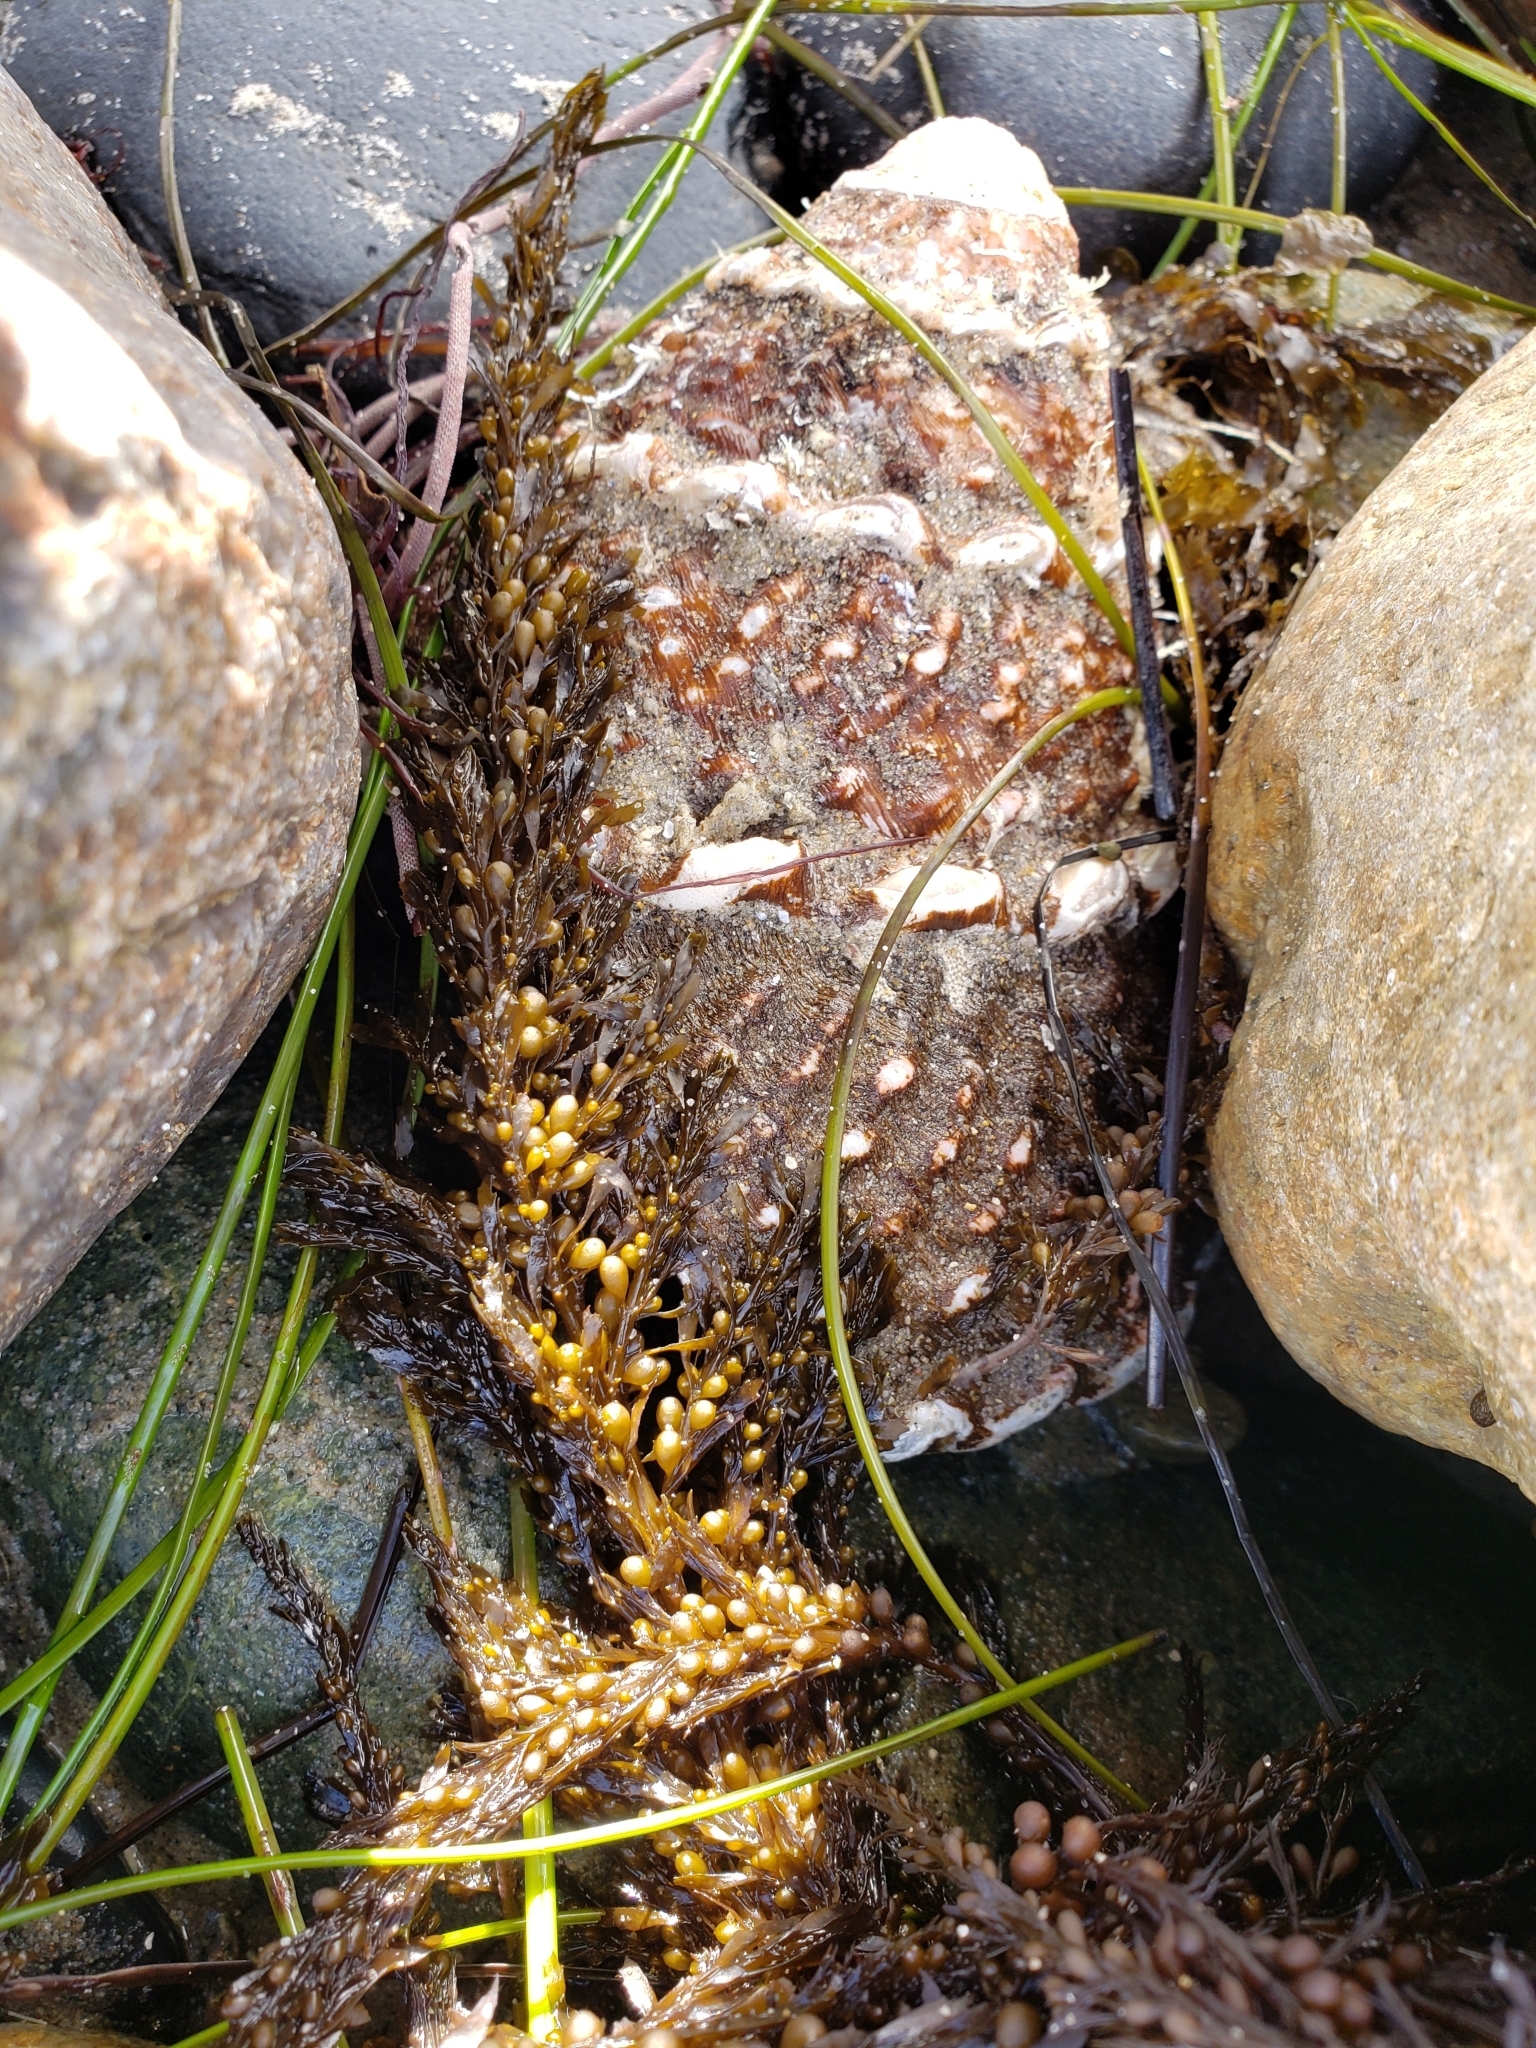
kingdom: Animalia
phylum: Mollusca
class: Gastropoda
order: Trochida
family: Turbinidae
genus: Megastraea
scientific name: Megastraea undosa
